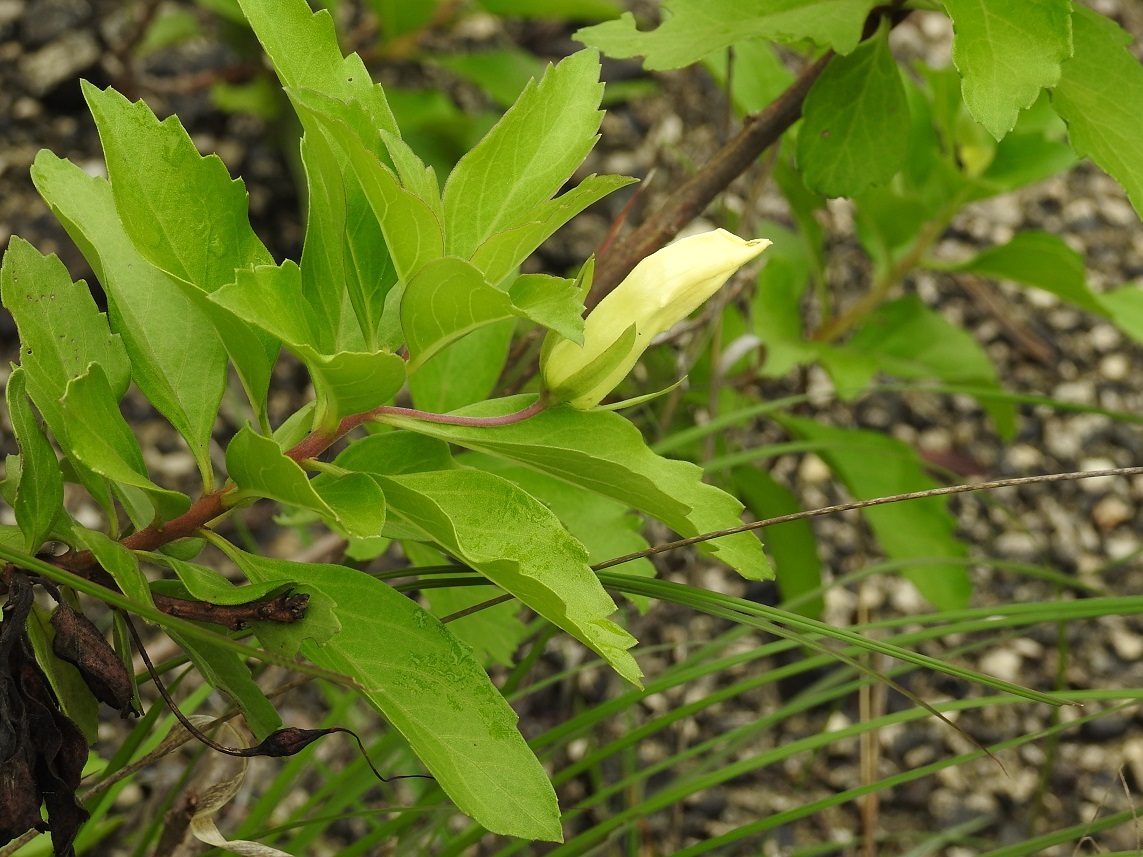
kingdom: Plantae
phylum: Tracheophyta
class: Magnoliopsida
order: Lamiales
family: Scrophulariaceae
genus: Eremogeton
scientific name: Eremogeton grandiflorus
